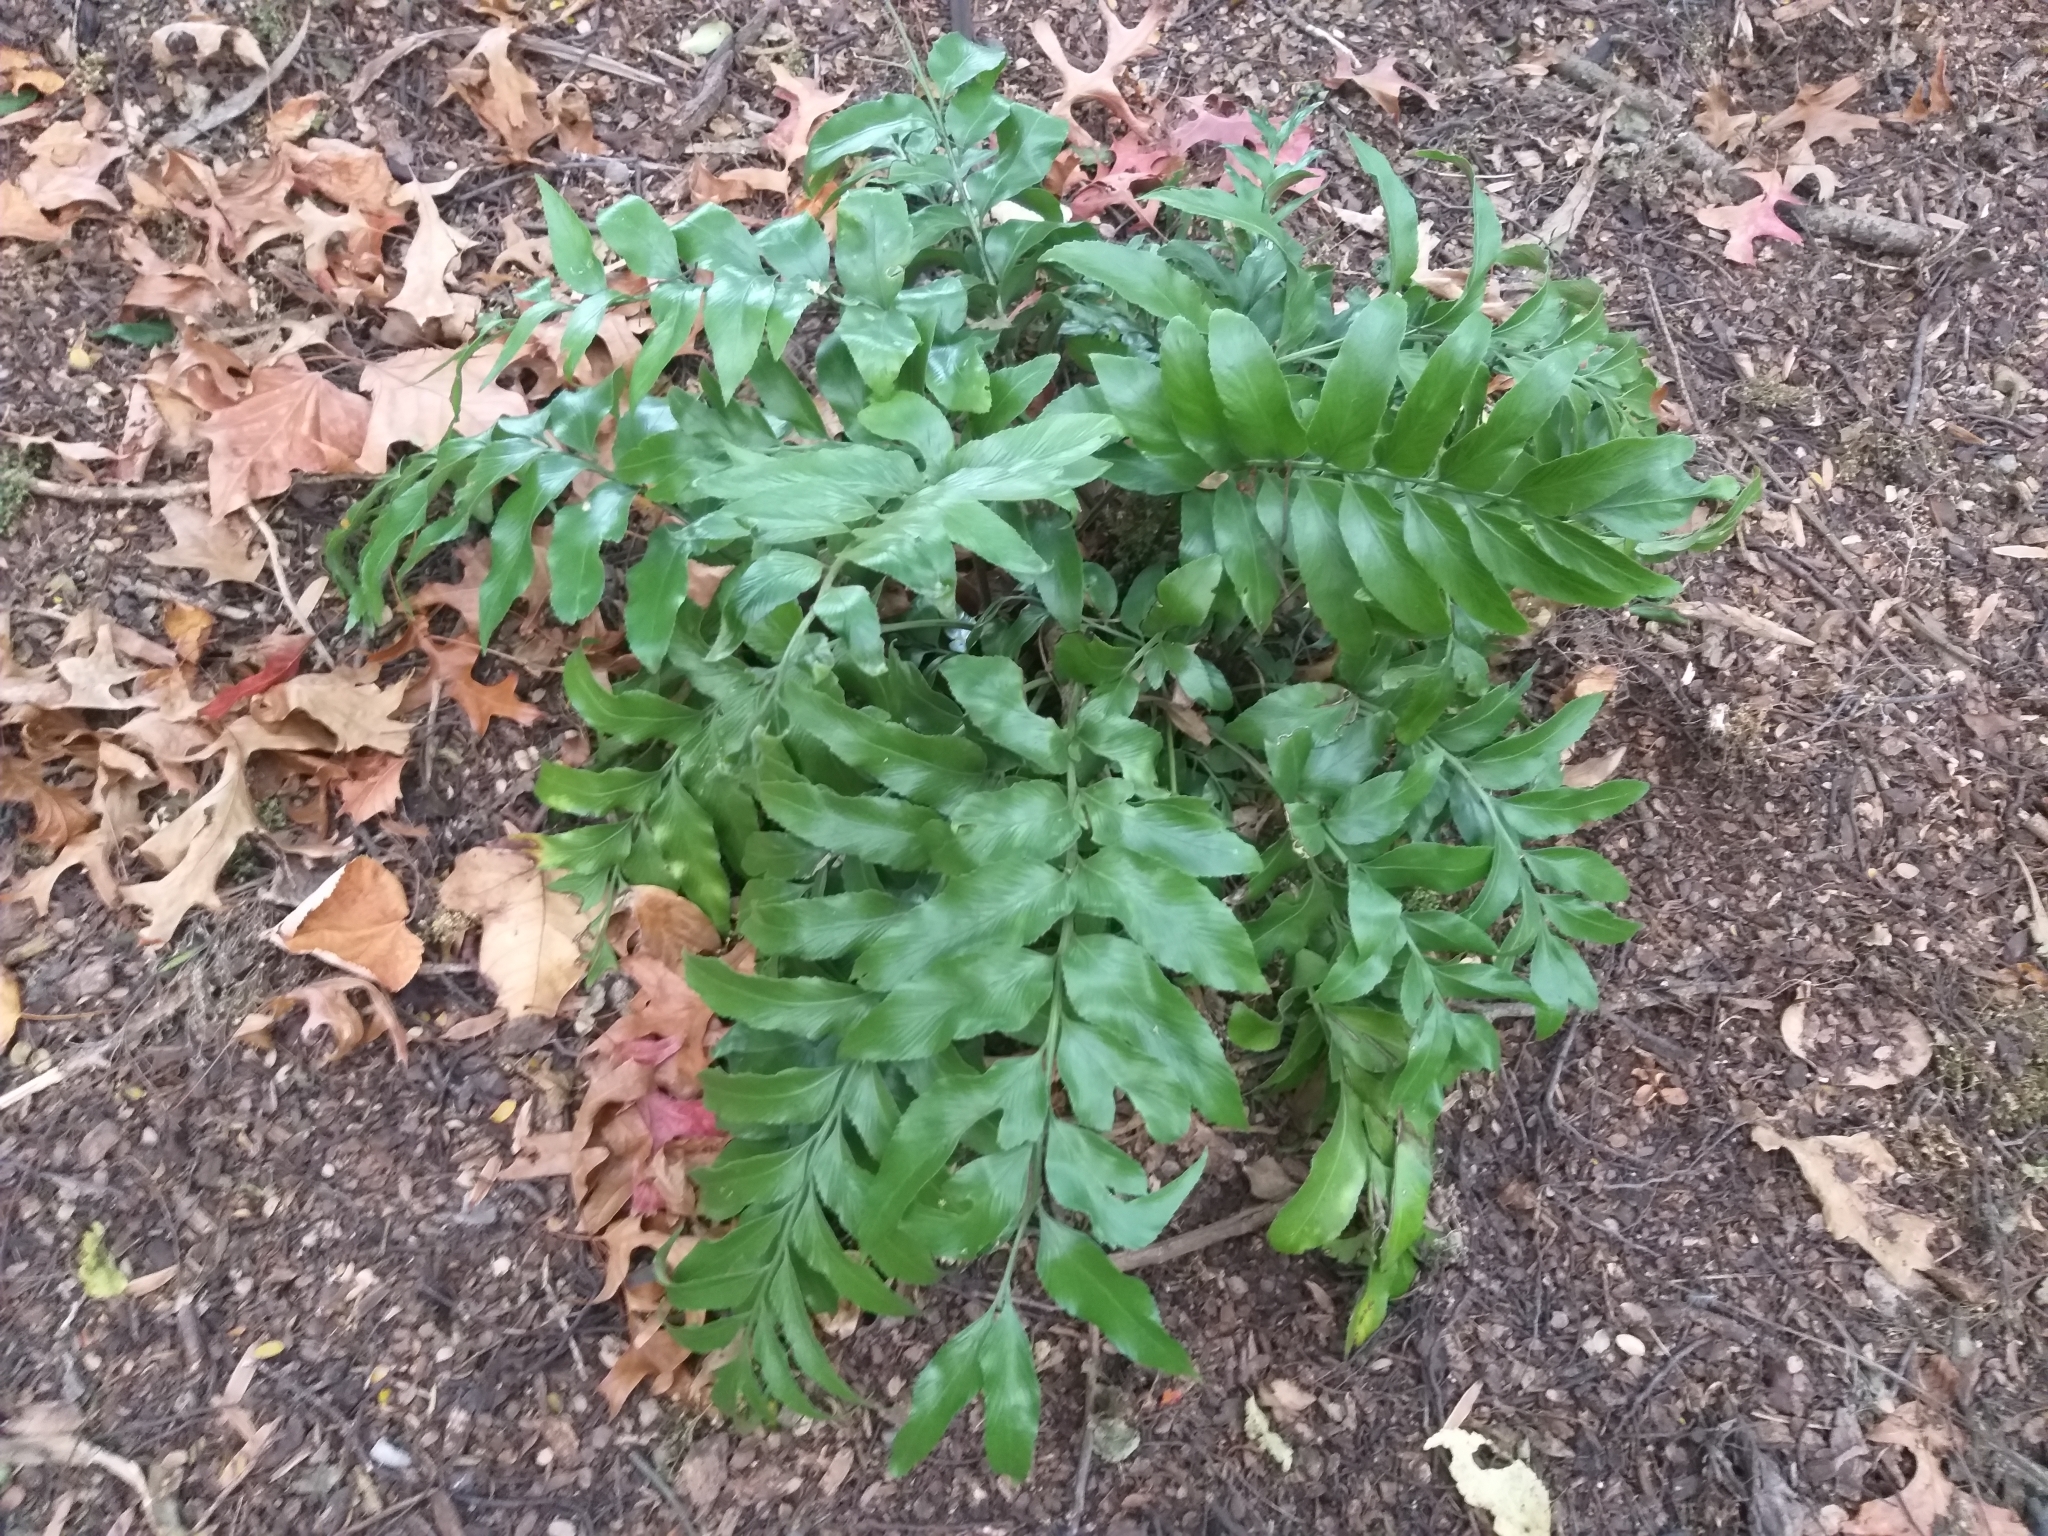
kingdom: Plantae
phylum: Tracheophyta
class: Polypodiopsida
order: Polypodiales
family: Aspleniaceae
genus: Asplenium
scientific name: Asplenium oblongifolium
